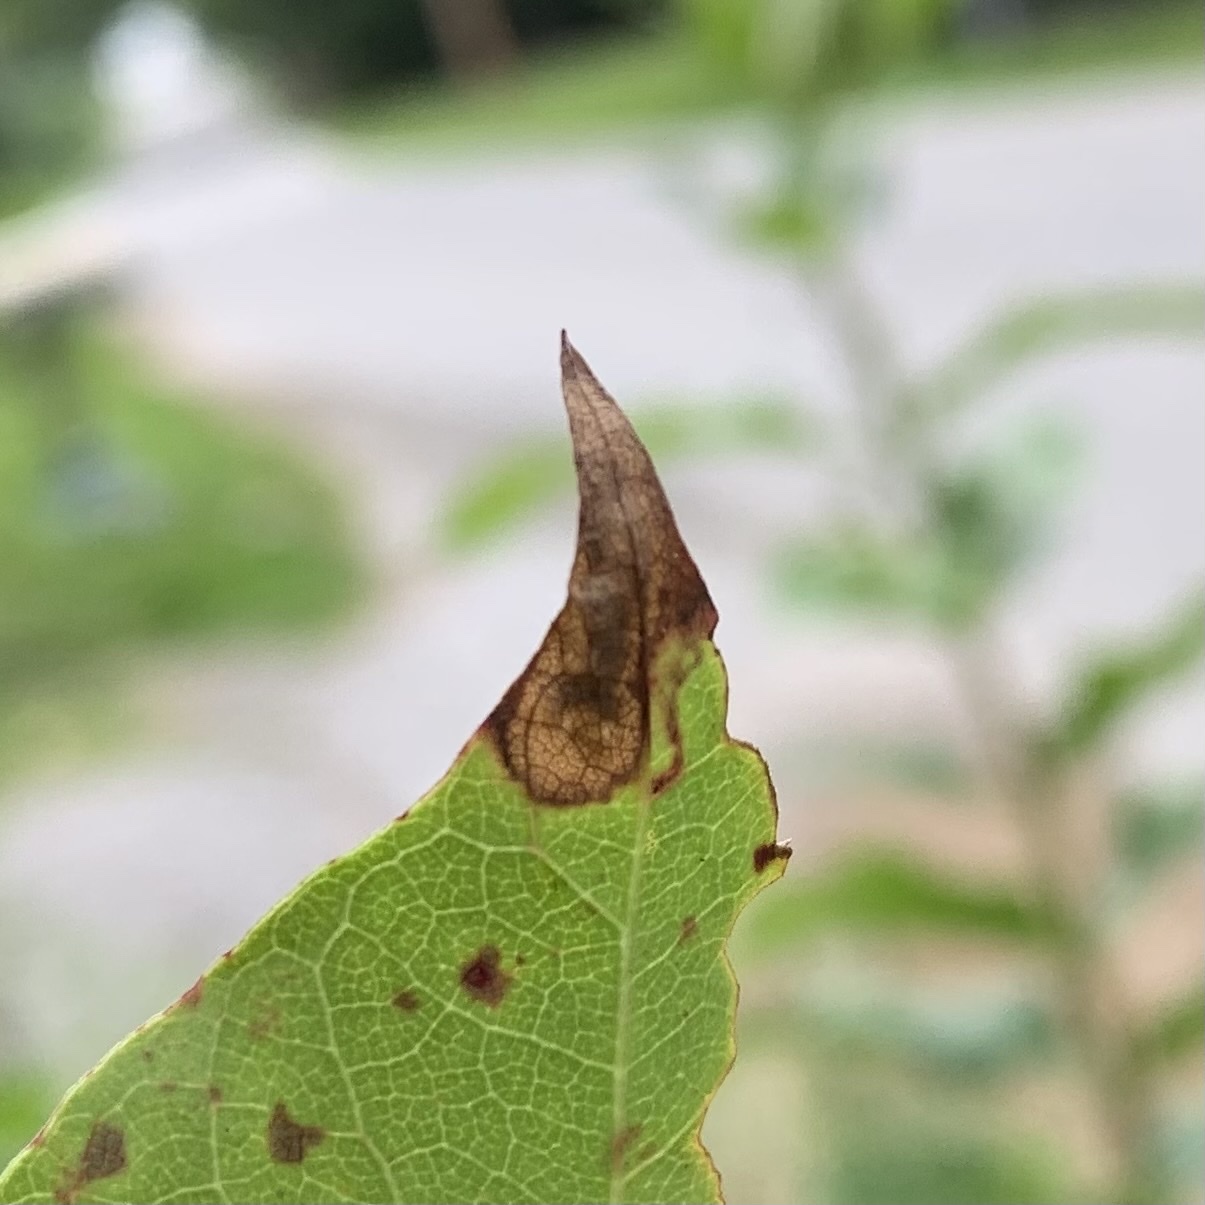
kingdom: Animalia
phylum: Arthropoda
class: Insecta
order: Lepidoptera
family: Nepticulidae
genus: Ectoedemia
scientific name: Ectoedemia nyssaefoliella
